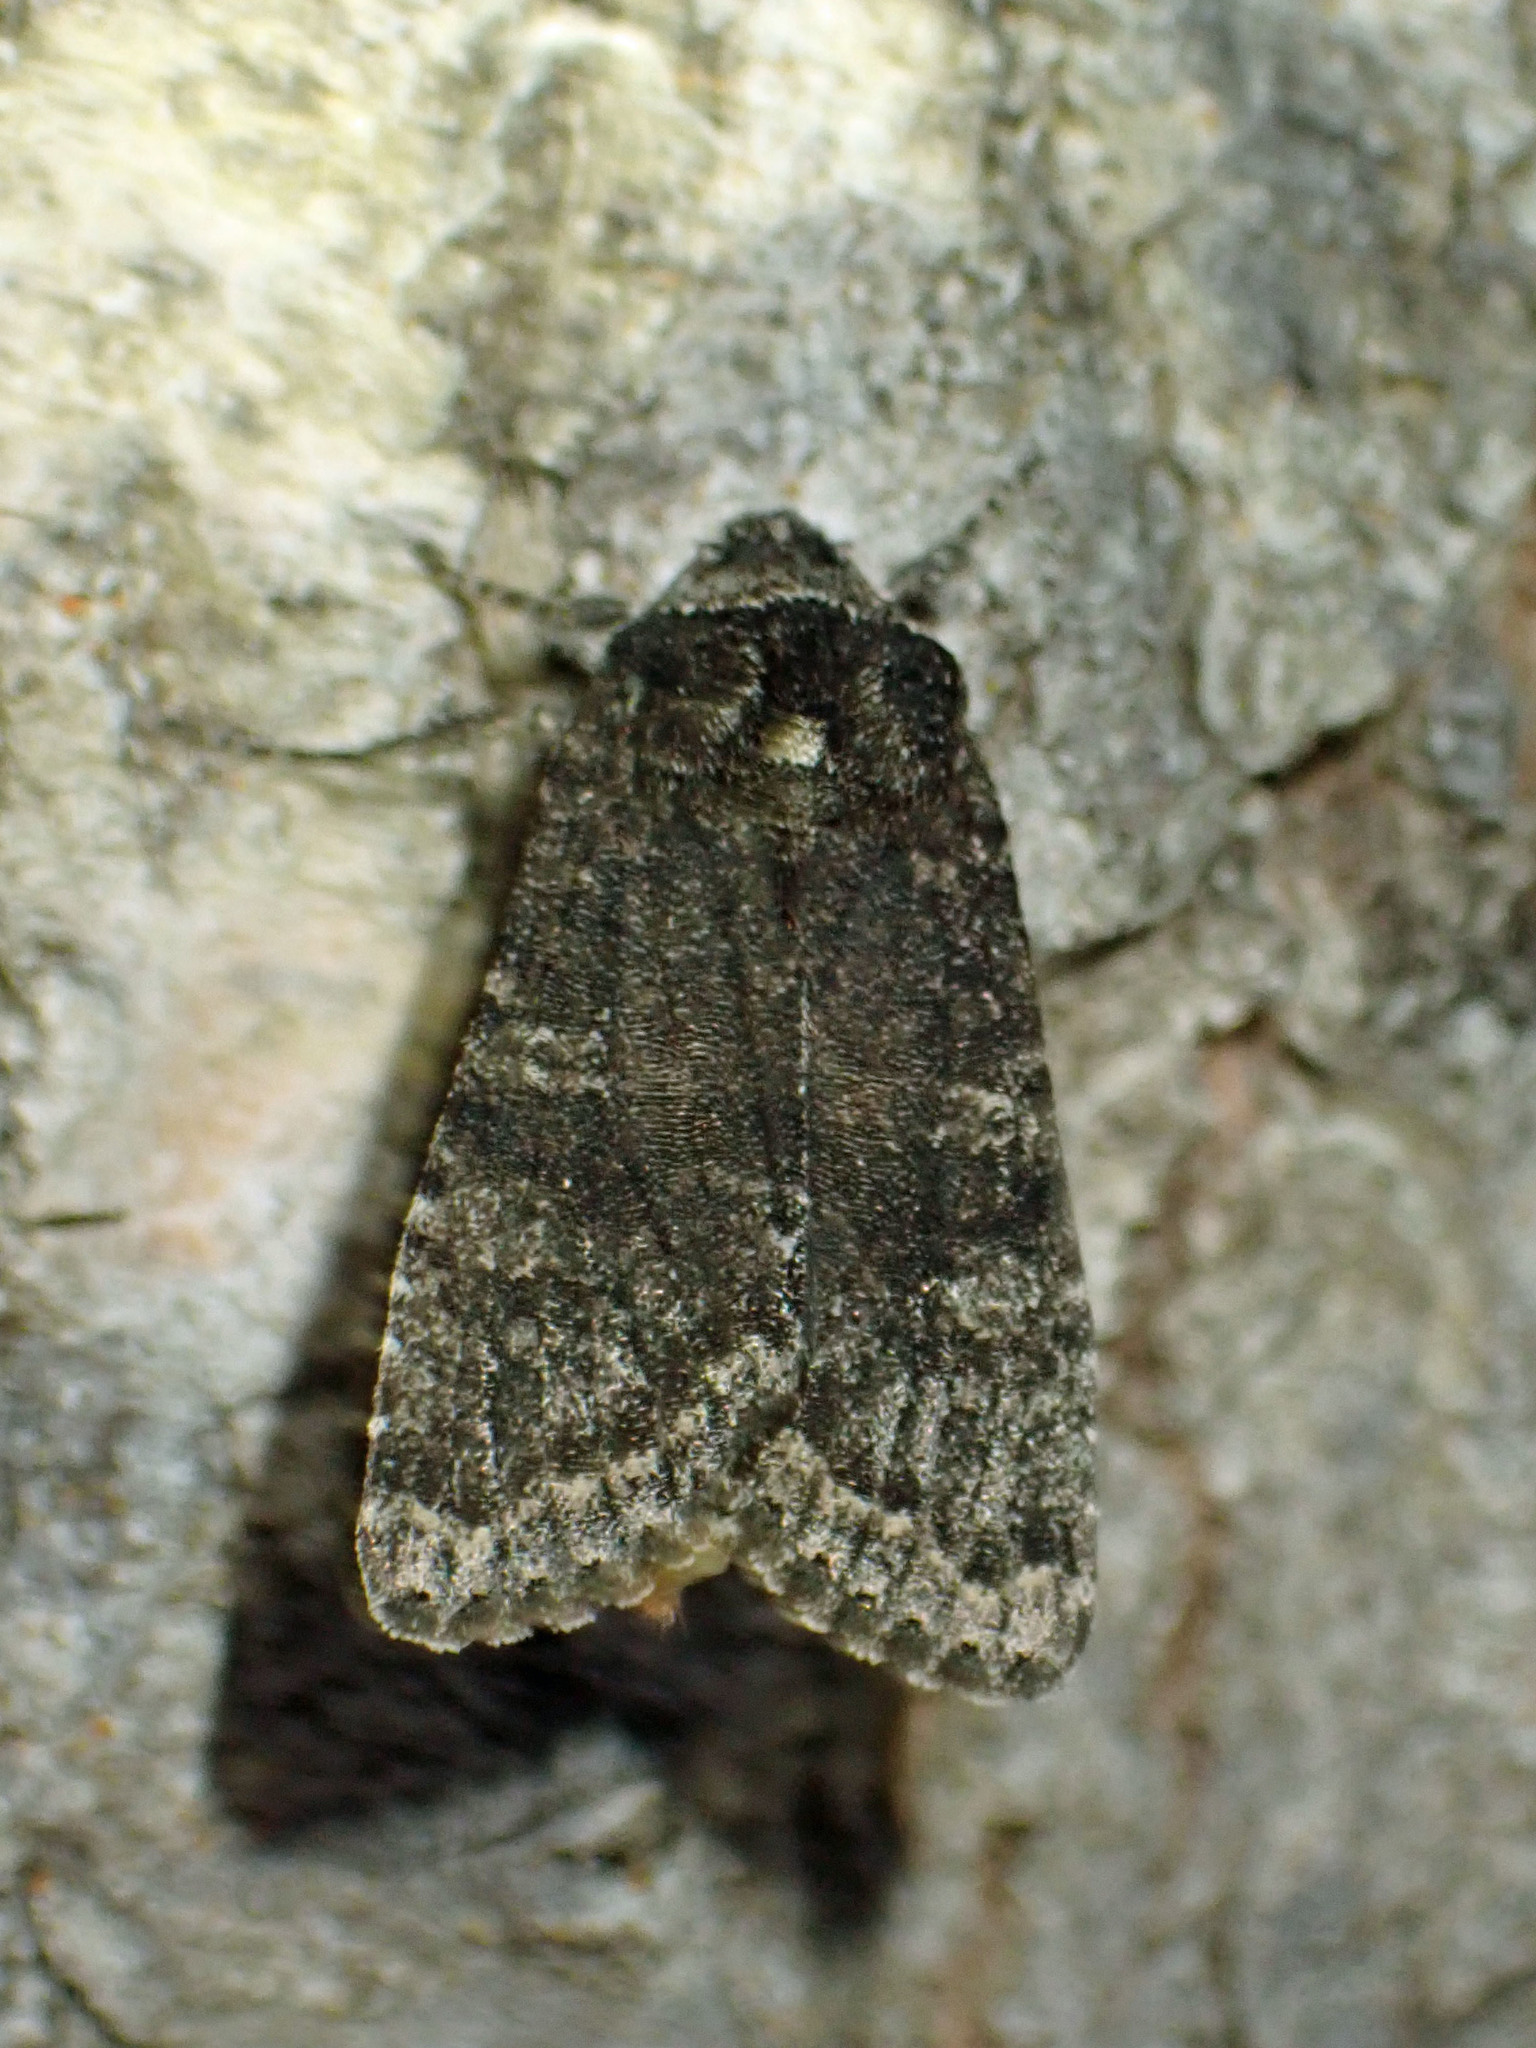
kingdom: Animalia
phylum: Arthropoda
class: Insecta
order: Lepidoptera
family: Noctuidae
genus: Egira
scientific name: Egira dolosa
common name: Lined black aspen cat.
